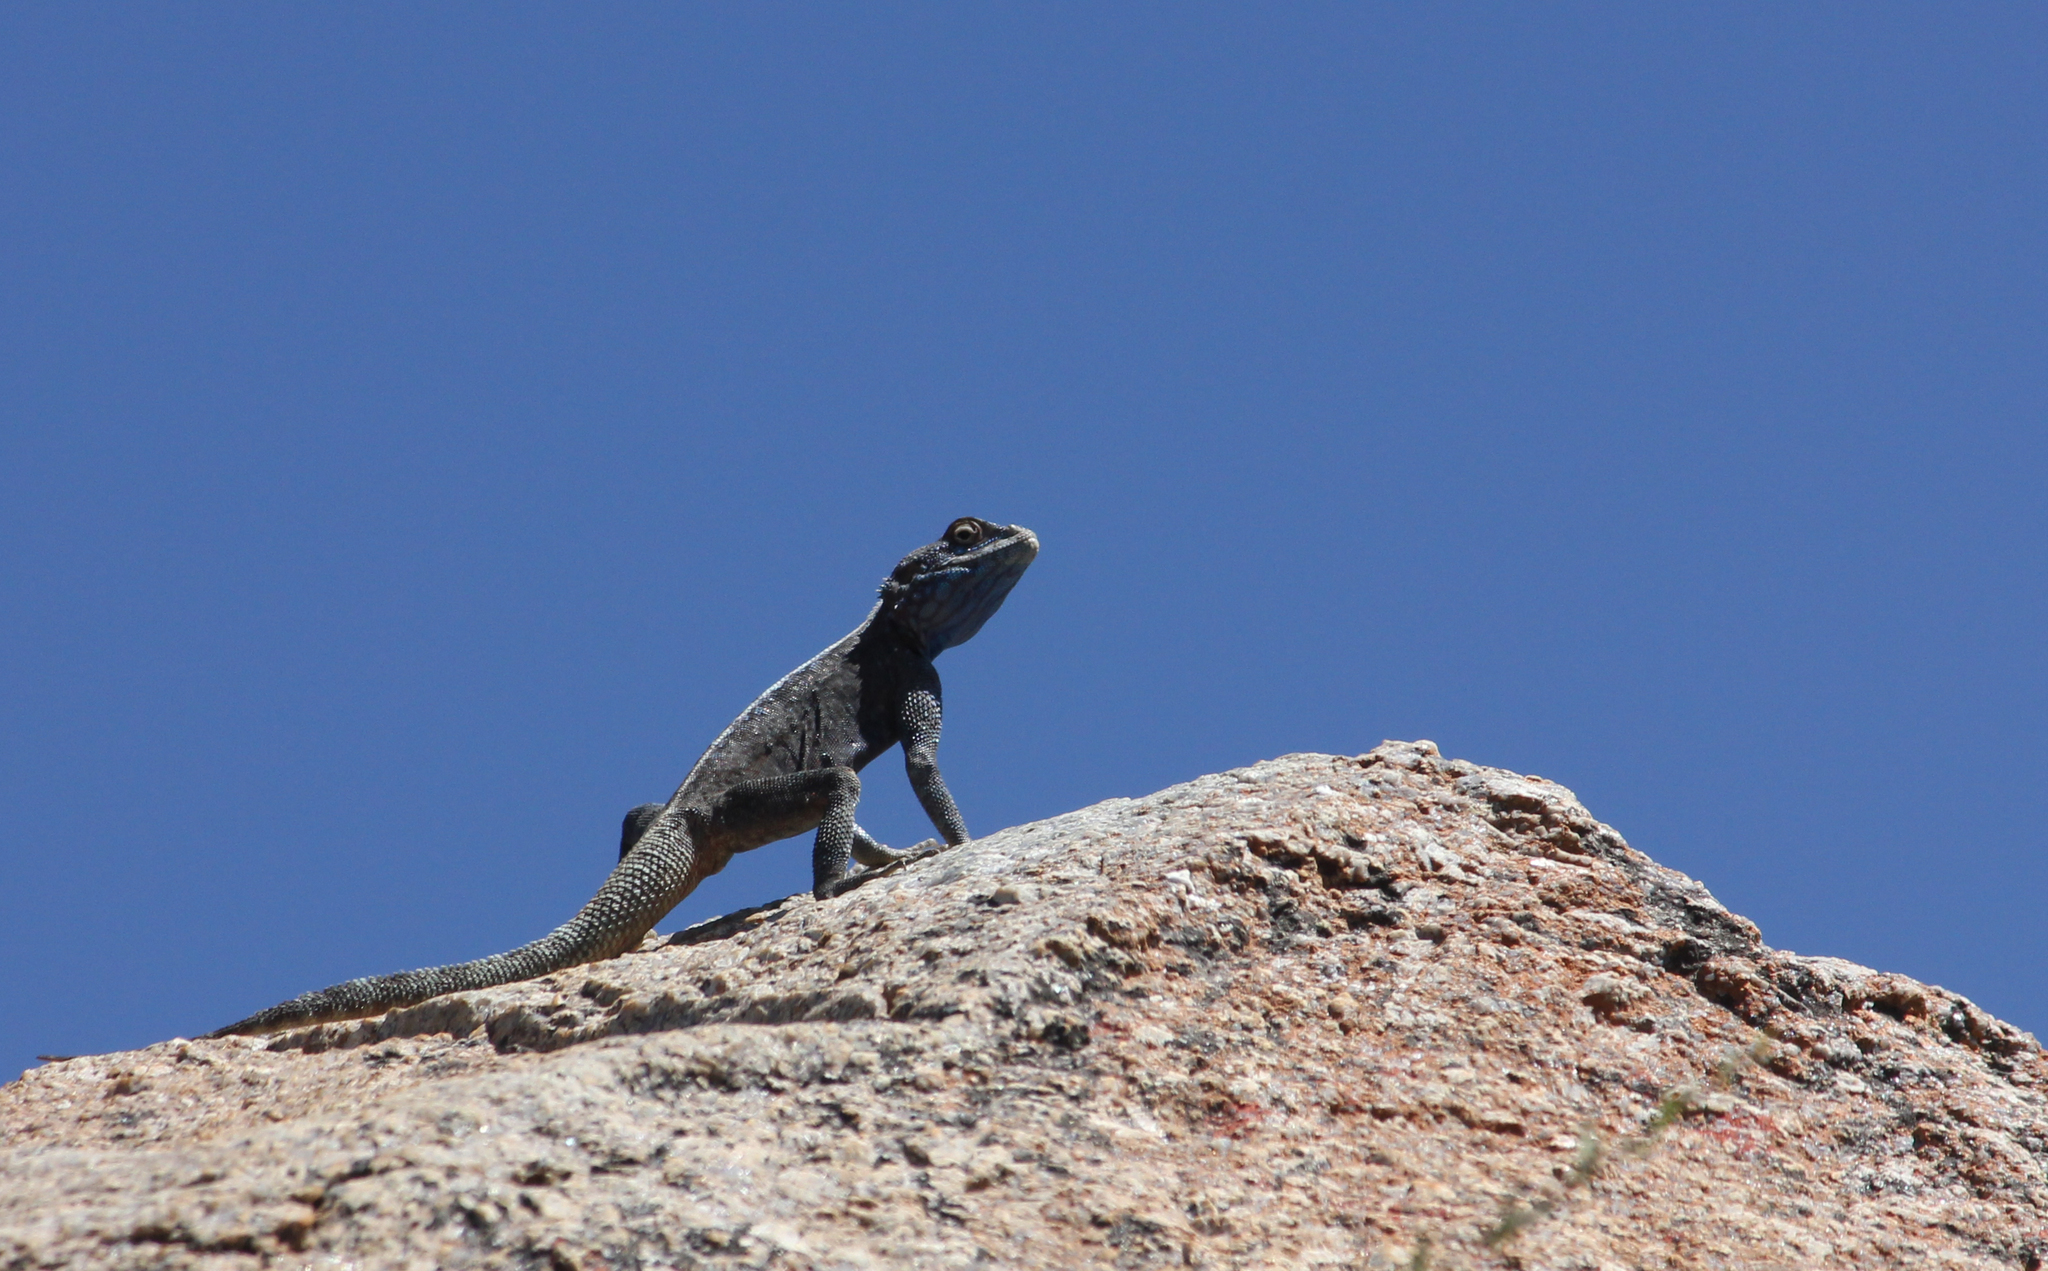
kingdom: Animalia
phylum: Chordata
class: Squamata
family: Agamidae
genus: Agama
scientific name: Agama atra
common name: Southern african rock agama
